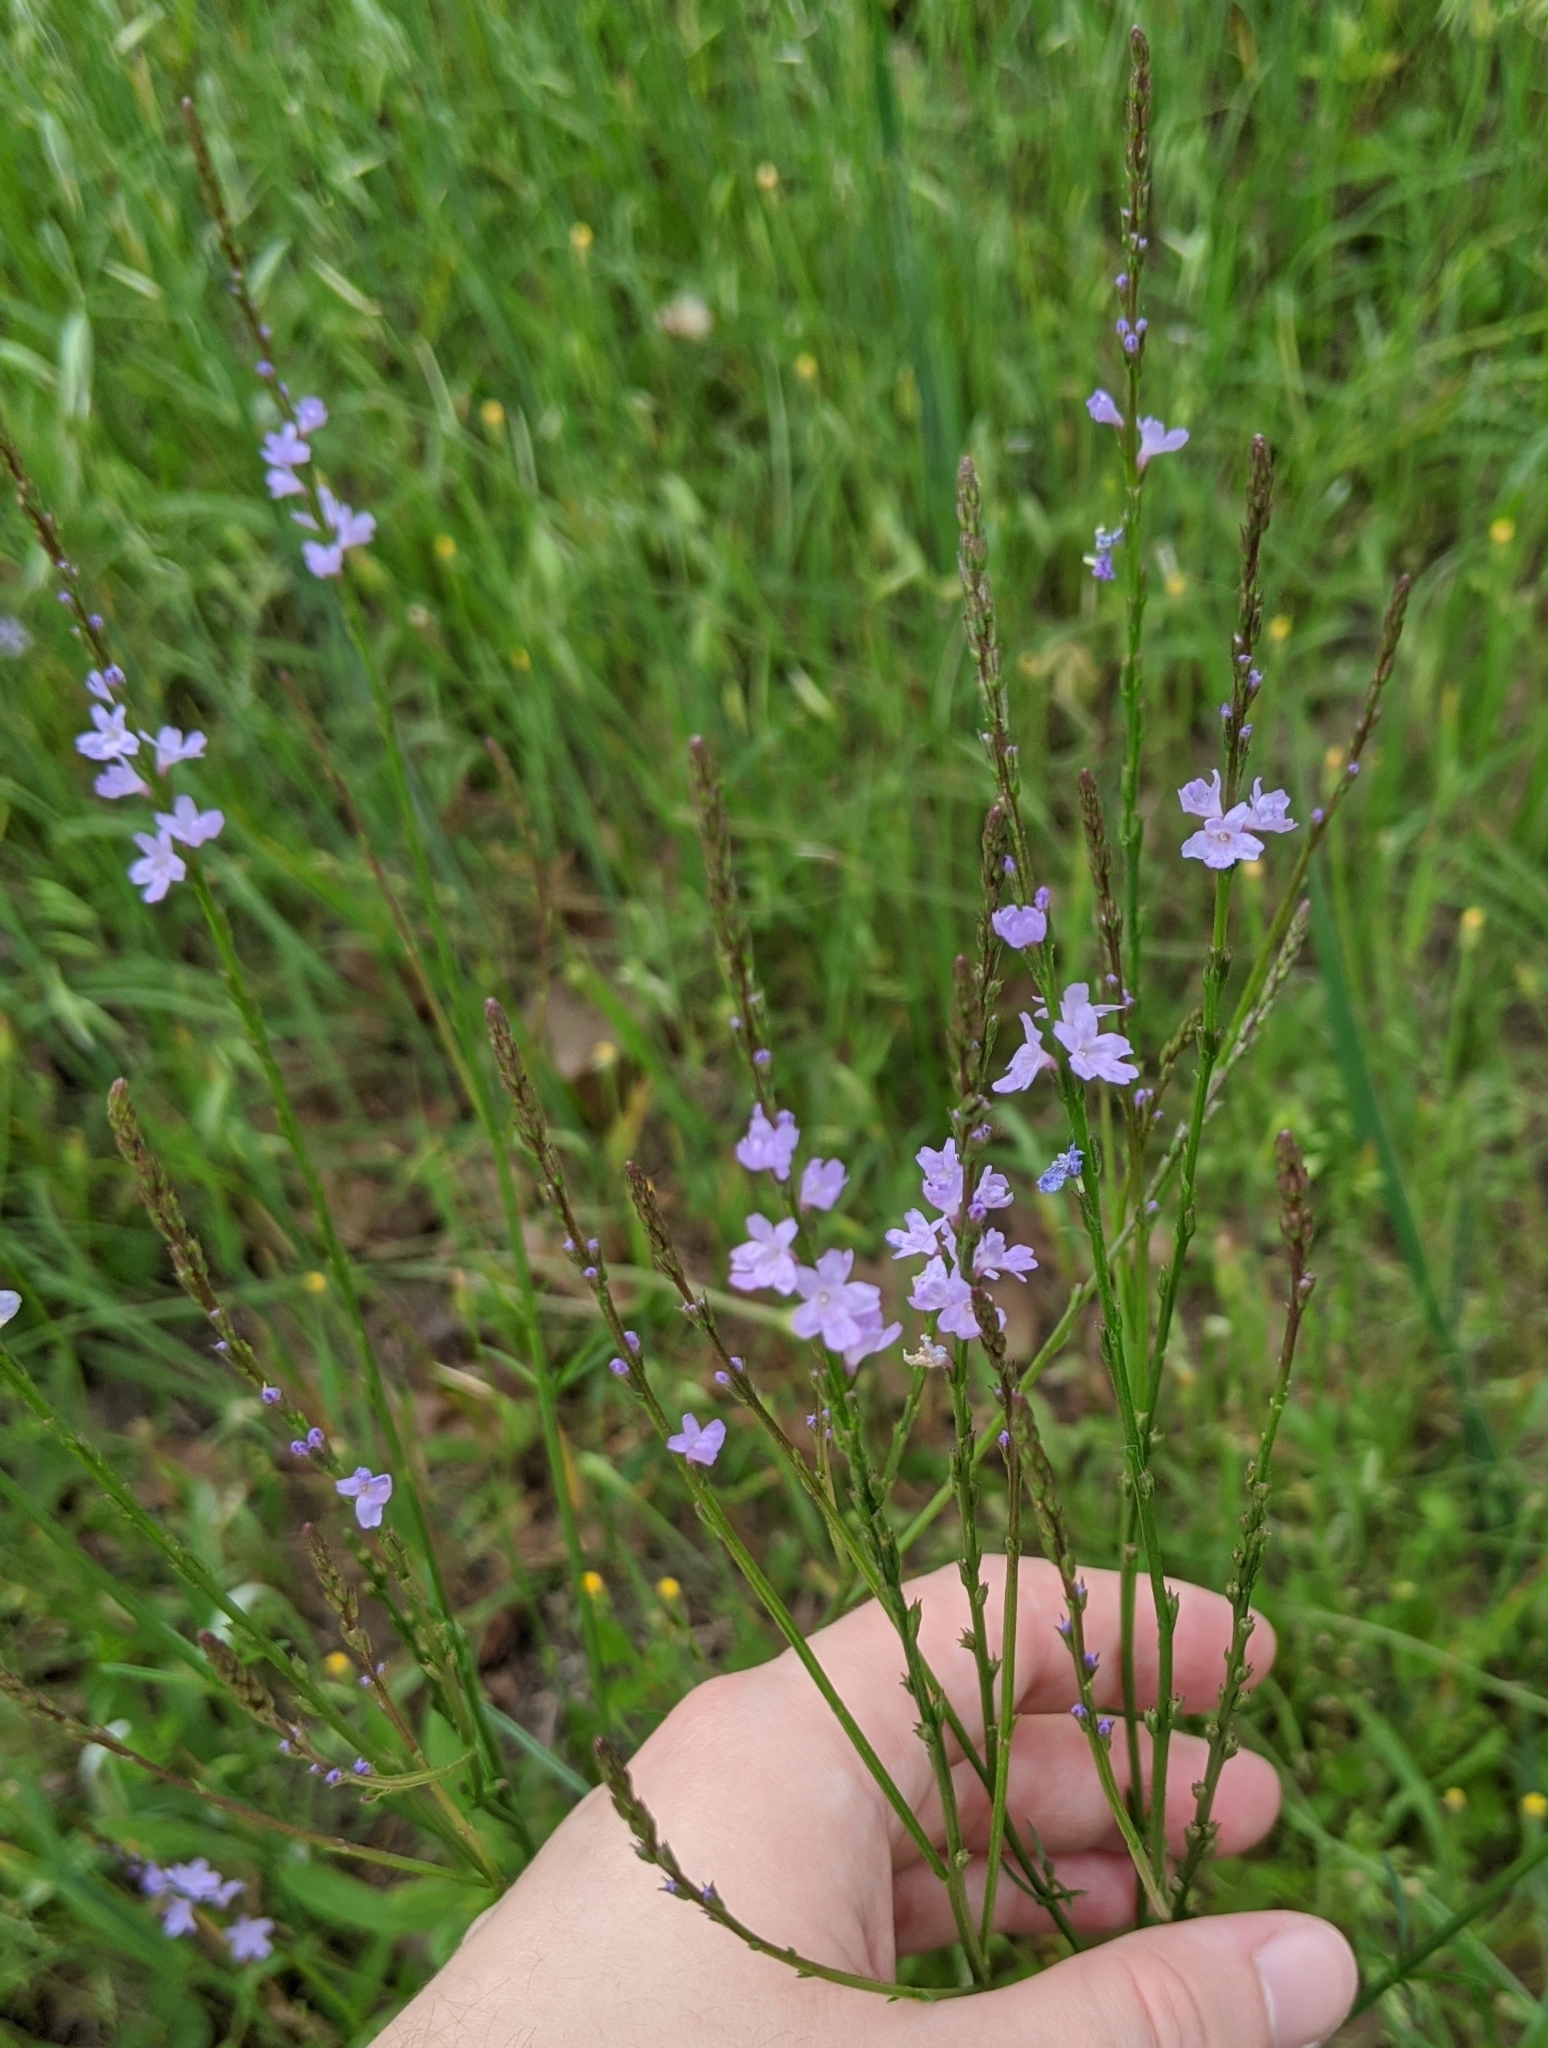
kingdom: Plantae
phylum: Tracheophyta
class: Magnoliopsida
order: Lamiales
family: Verbenaceae
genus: Verbena
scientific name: Verbena halei
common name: Texas vervain
